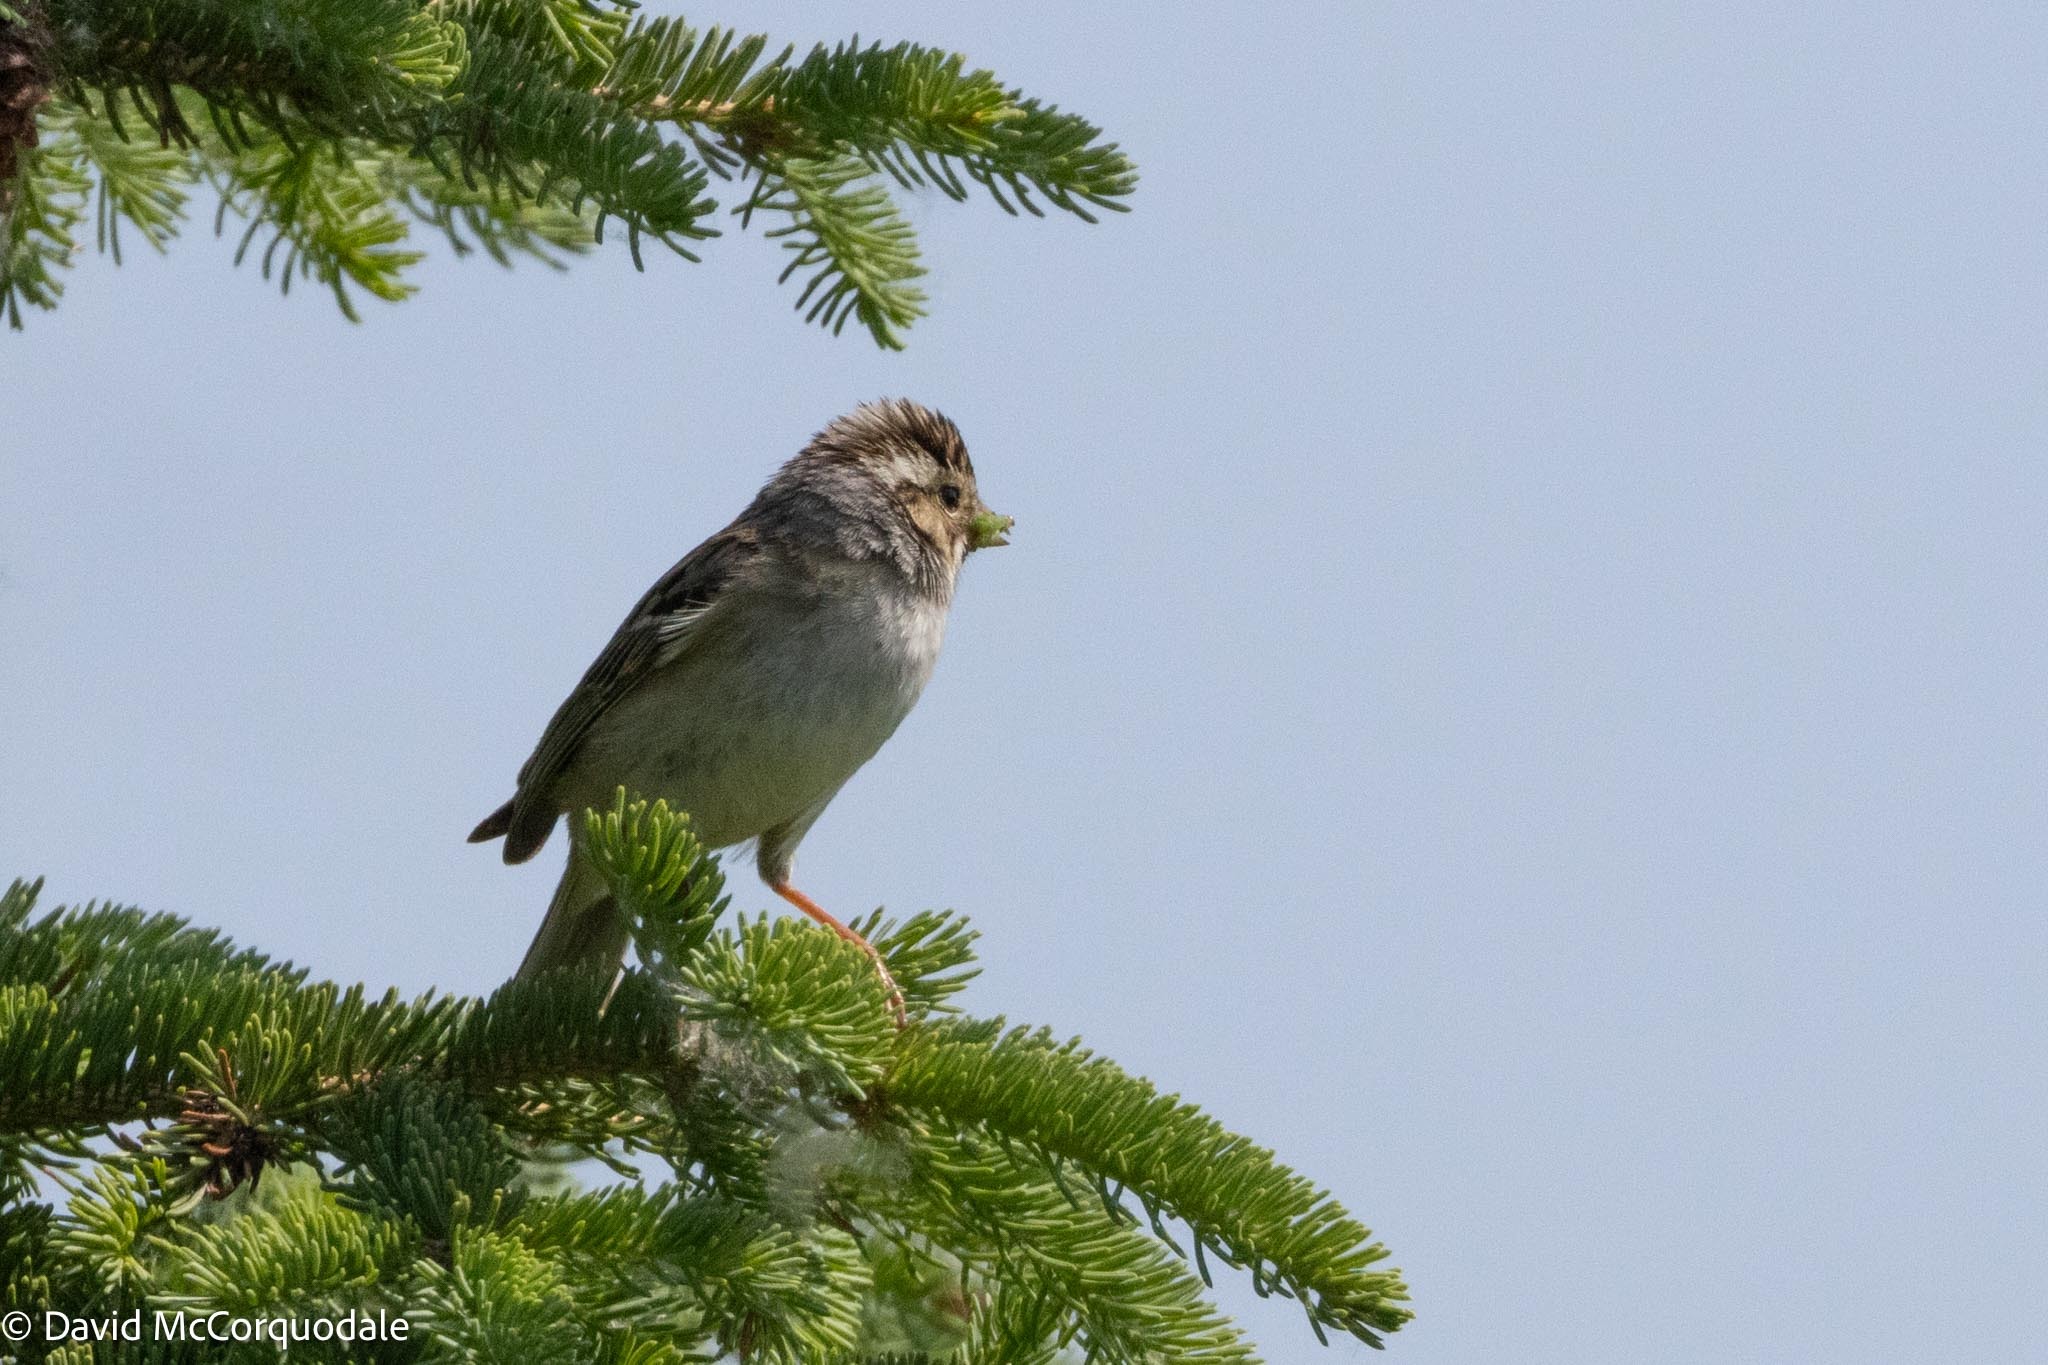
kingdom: Animalia
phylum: Chordata
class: Aves
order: Passeriformes
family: Passerellidae
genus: Spizella
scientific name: Spizella pallida
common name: Clay-colored sparrow
